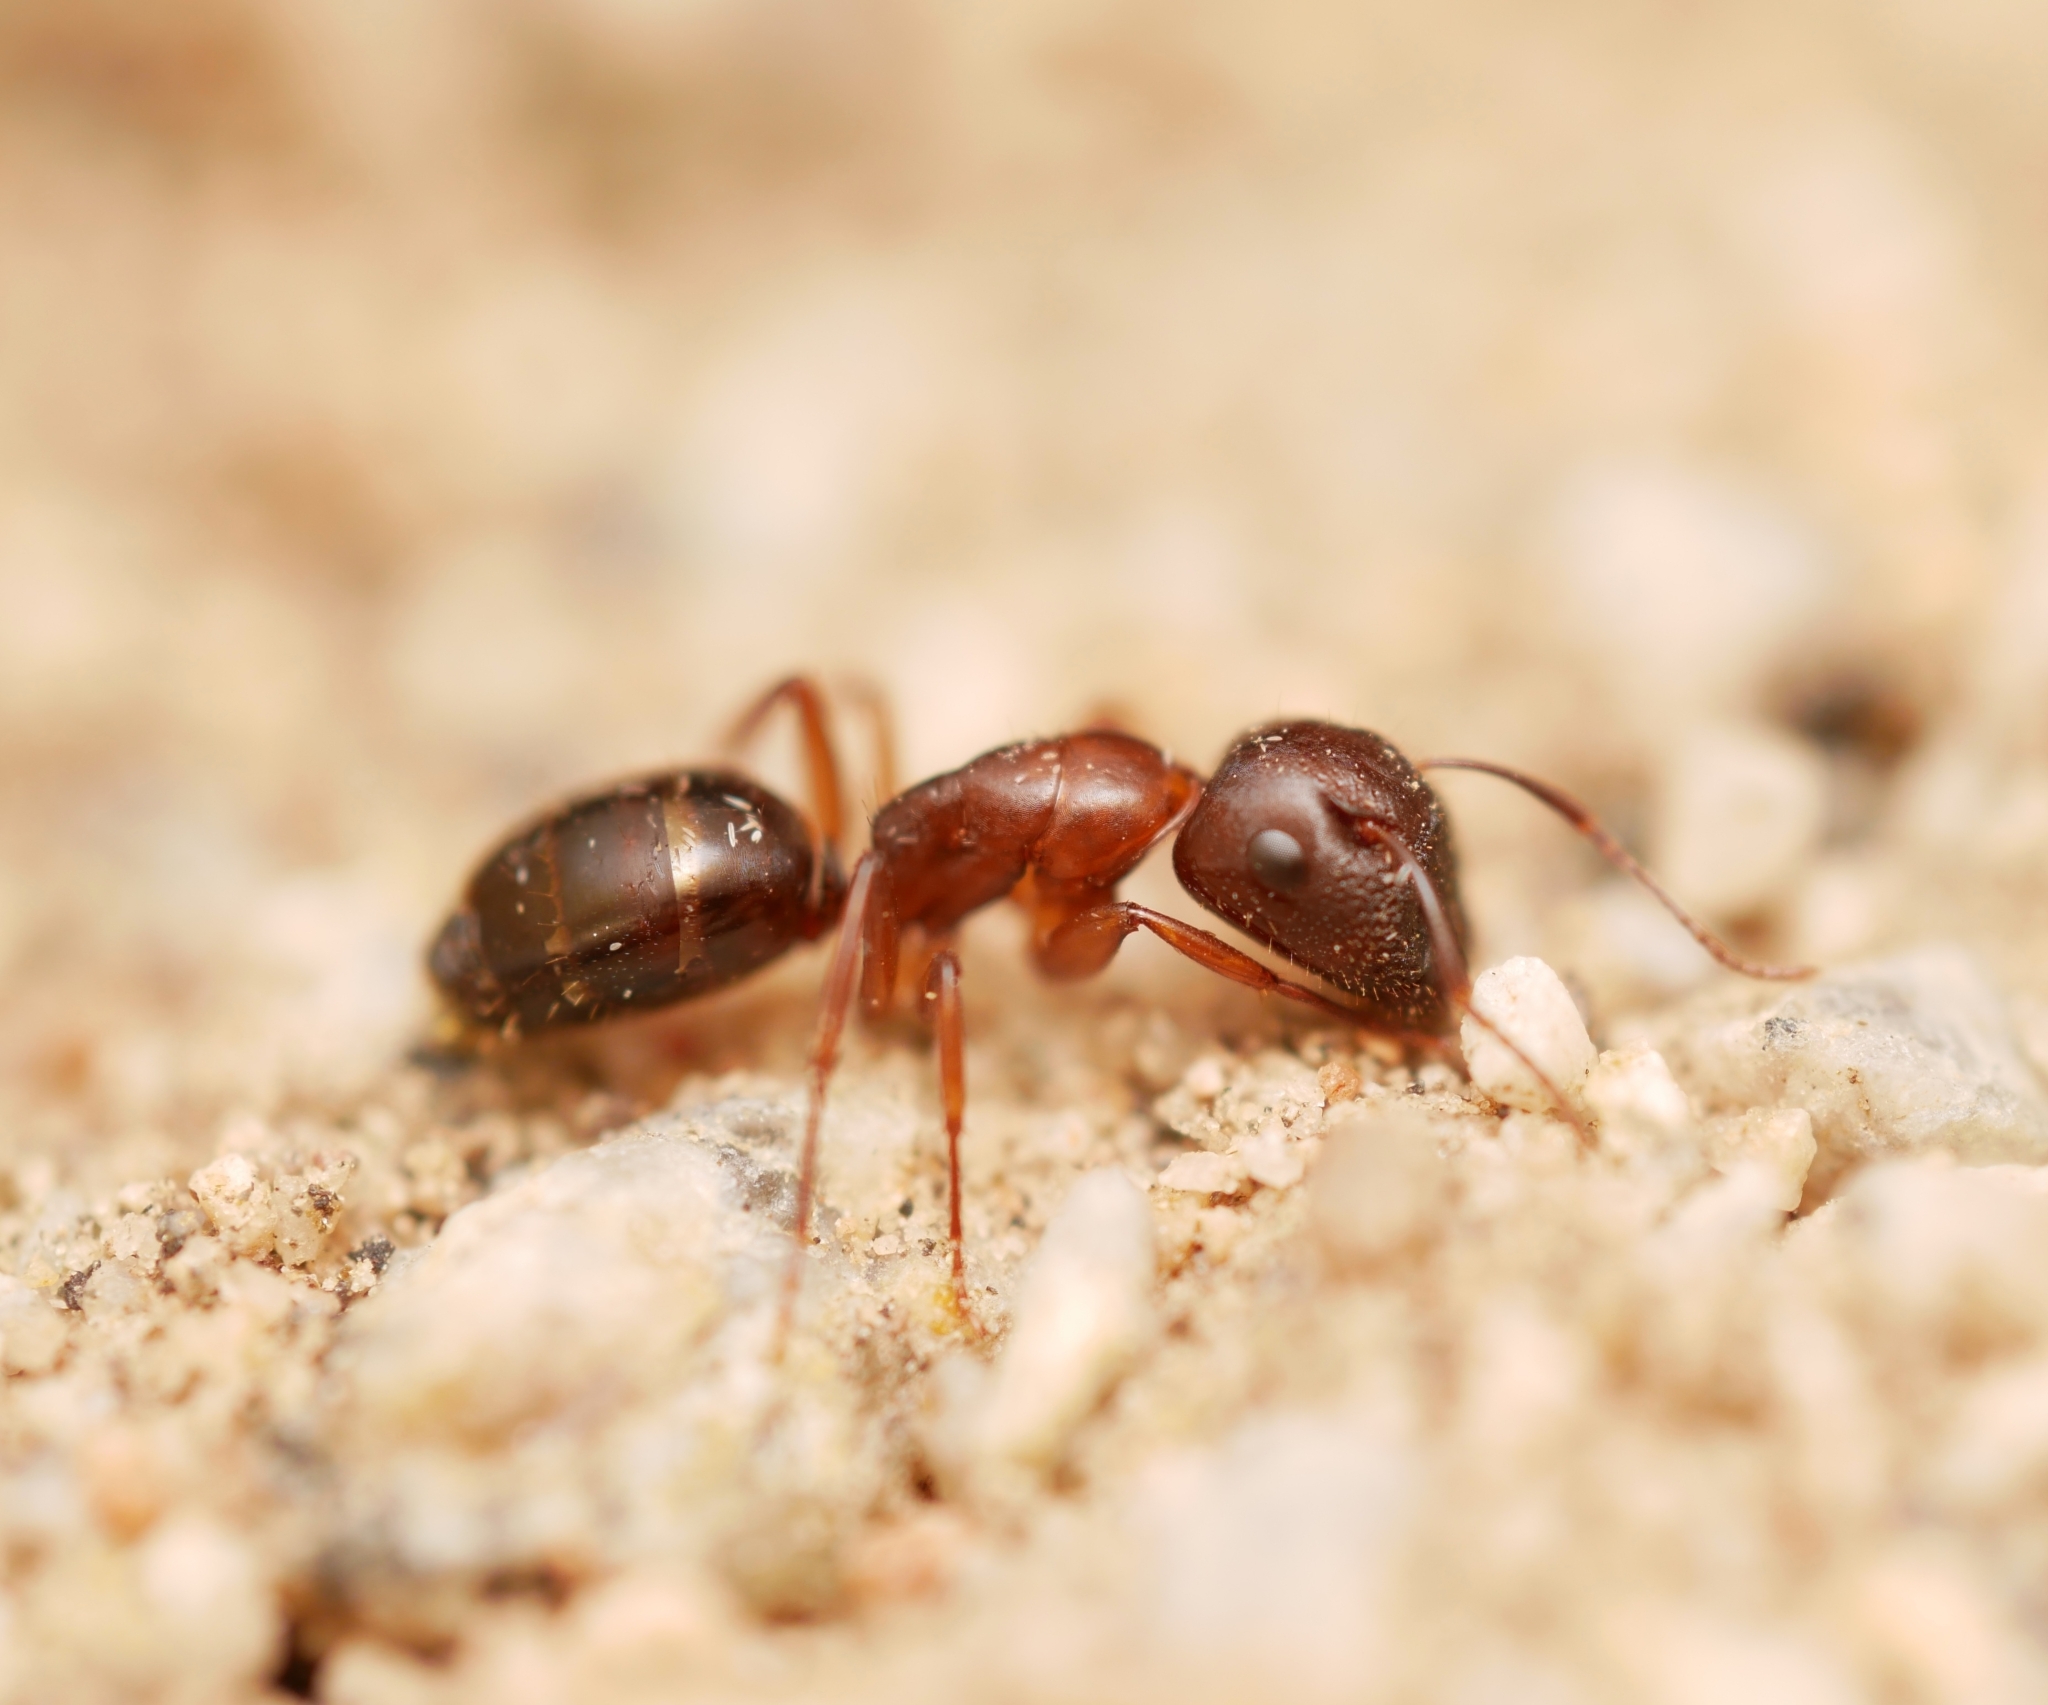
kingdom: Animalia
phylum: Arthropoda
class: Insecta
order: Hymenoptera
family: Formicidae
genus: Camponotus
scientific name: Camponotus yogi
